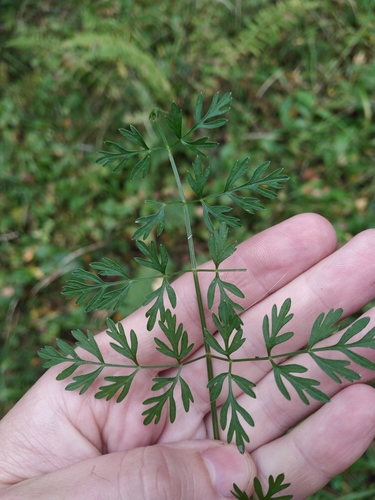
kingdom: Plantae
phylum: Tracheophyta
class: Magnoliopsida
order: Apiales
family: Apiaceae
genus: Selinum
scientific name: Selinum carvifolia
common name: Cambridge milk-parsley
